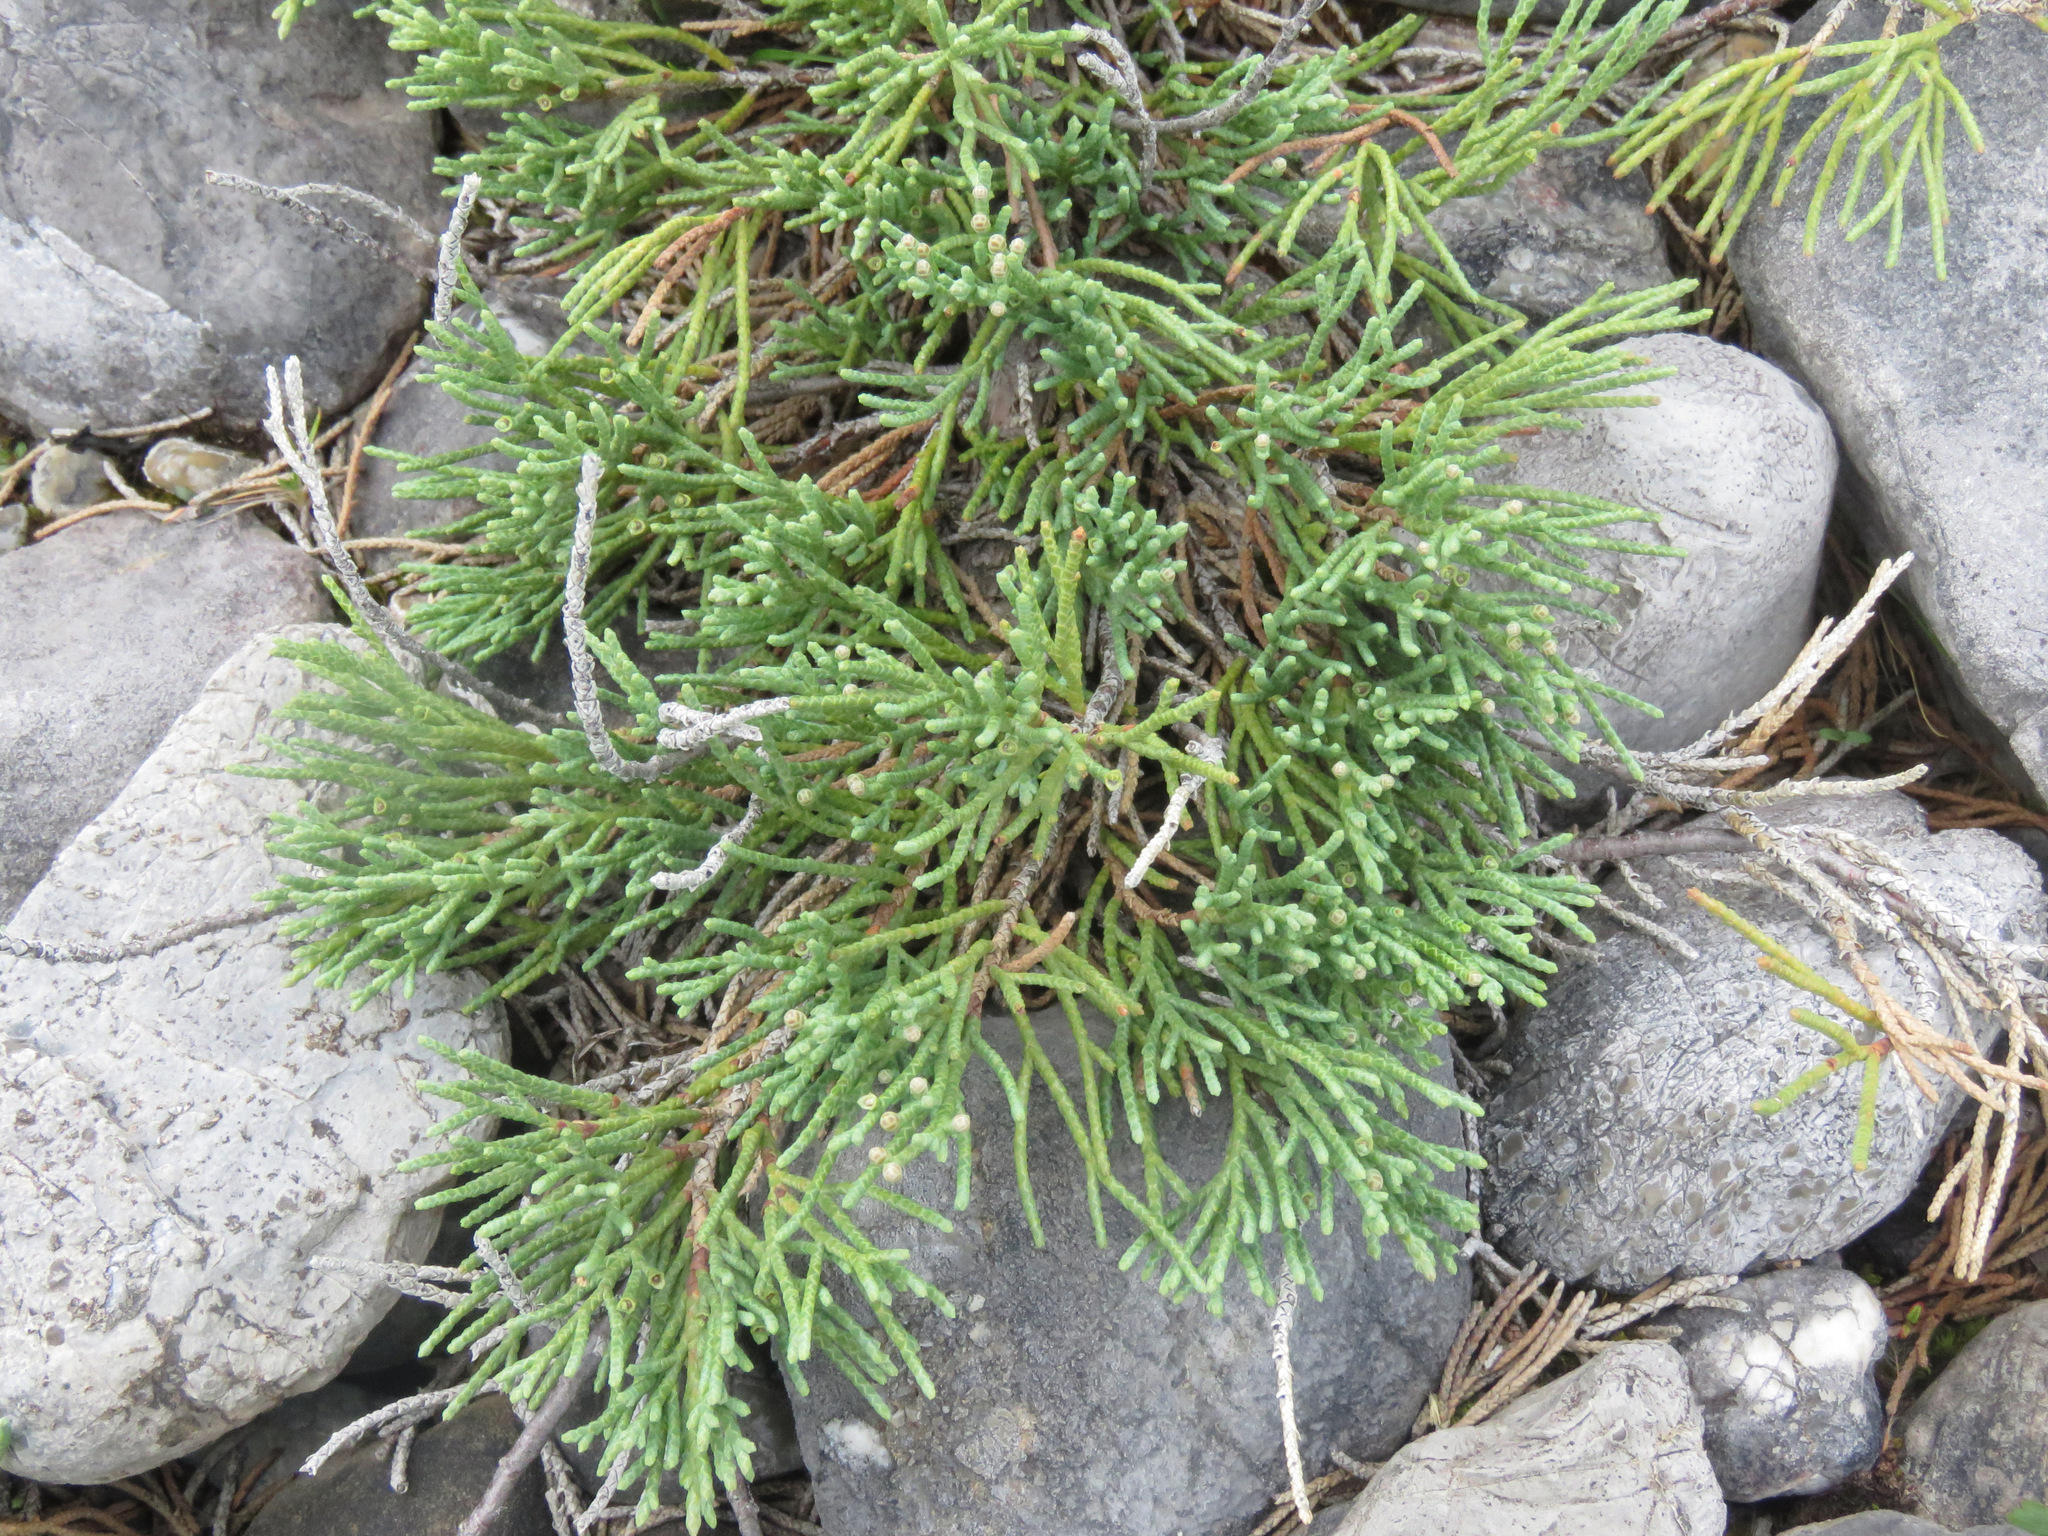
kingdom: Plantae
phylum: Tracheophyta
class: Pinopsida
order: Pinales
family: Cupressaceae
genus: Juniperus
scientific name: Juniperus horizontalis
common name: Creeping juniper
